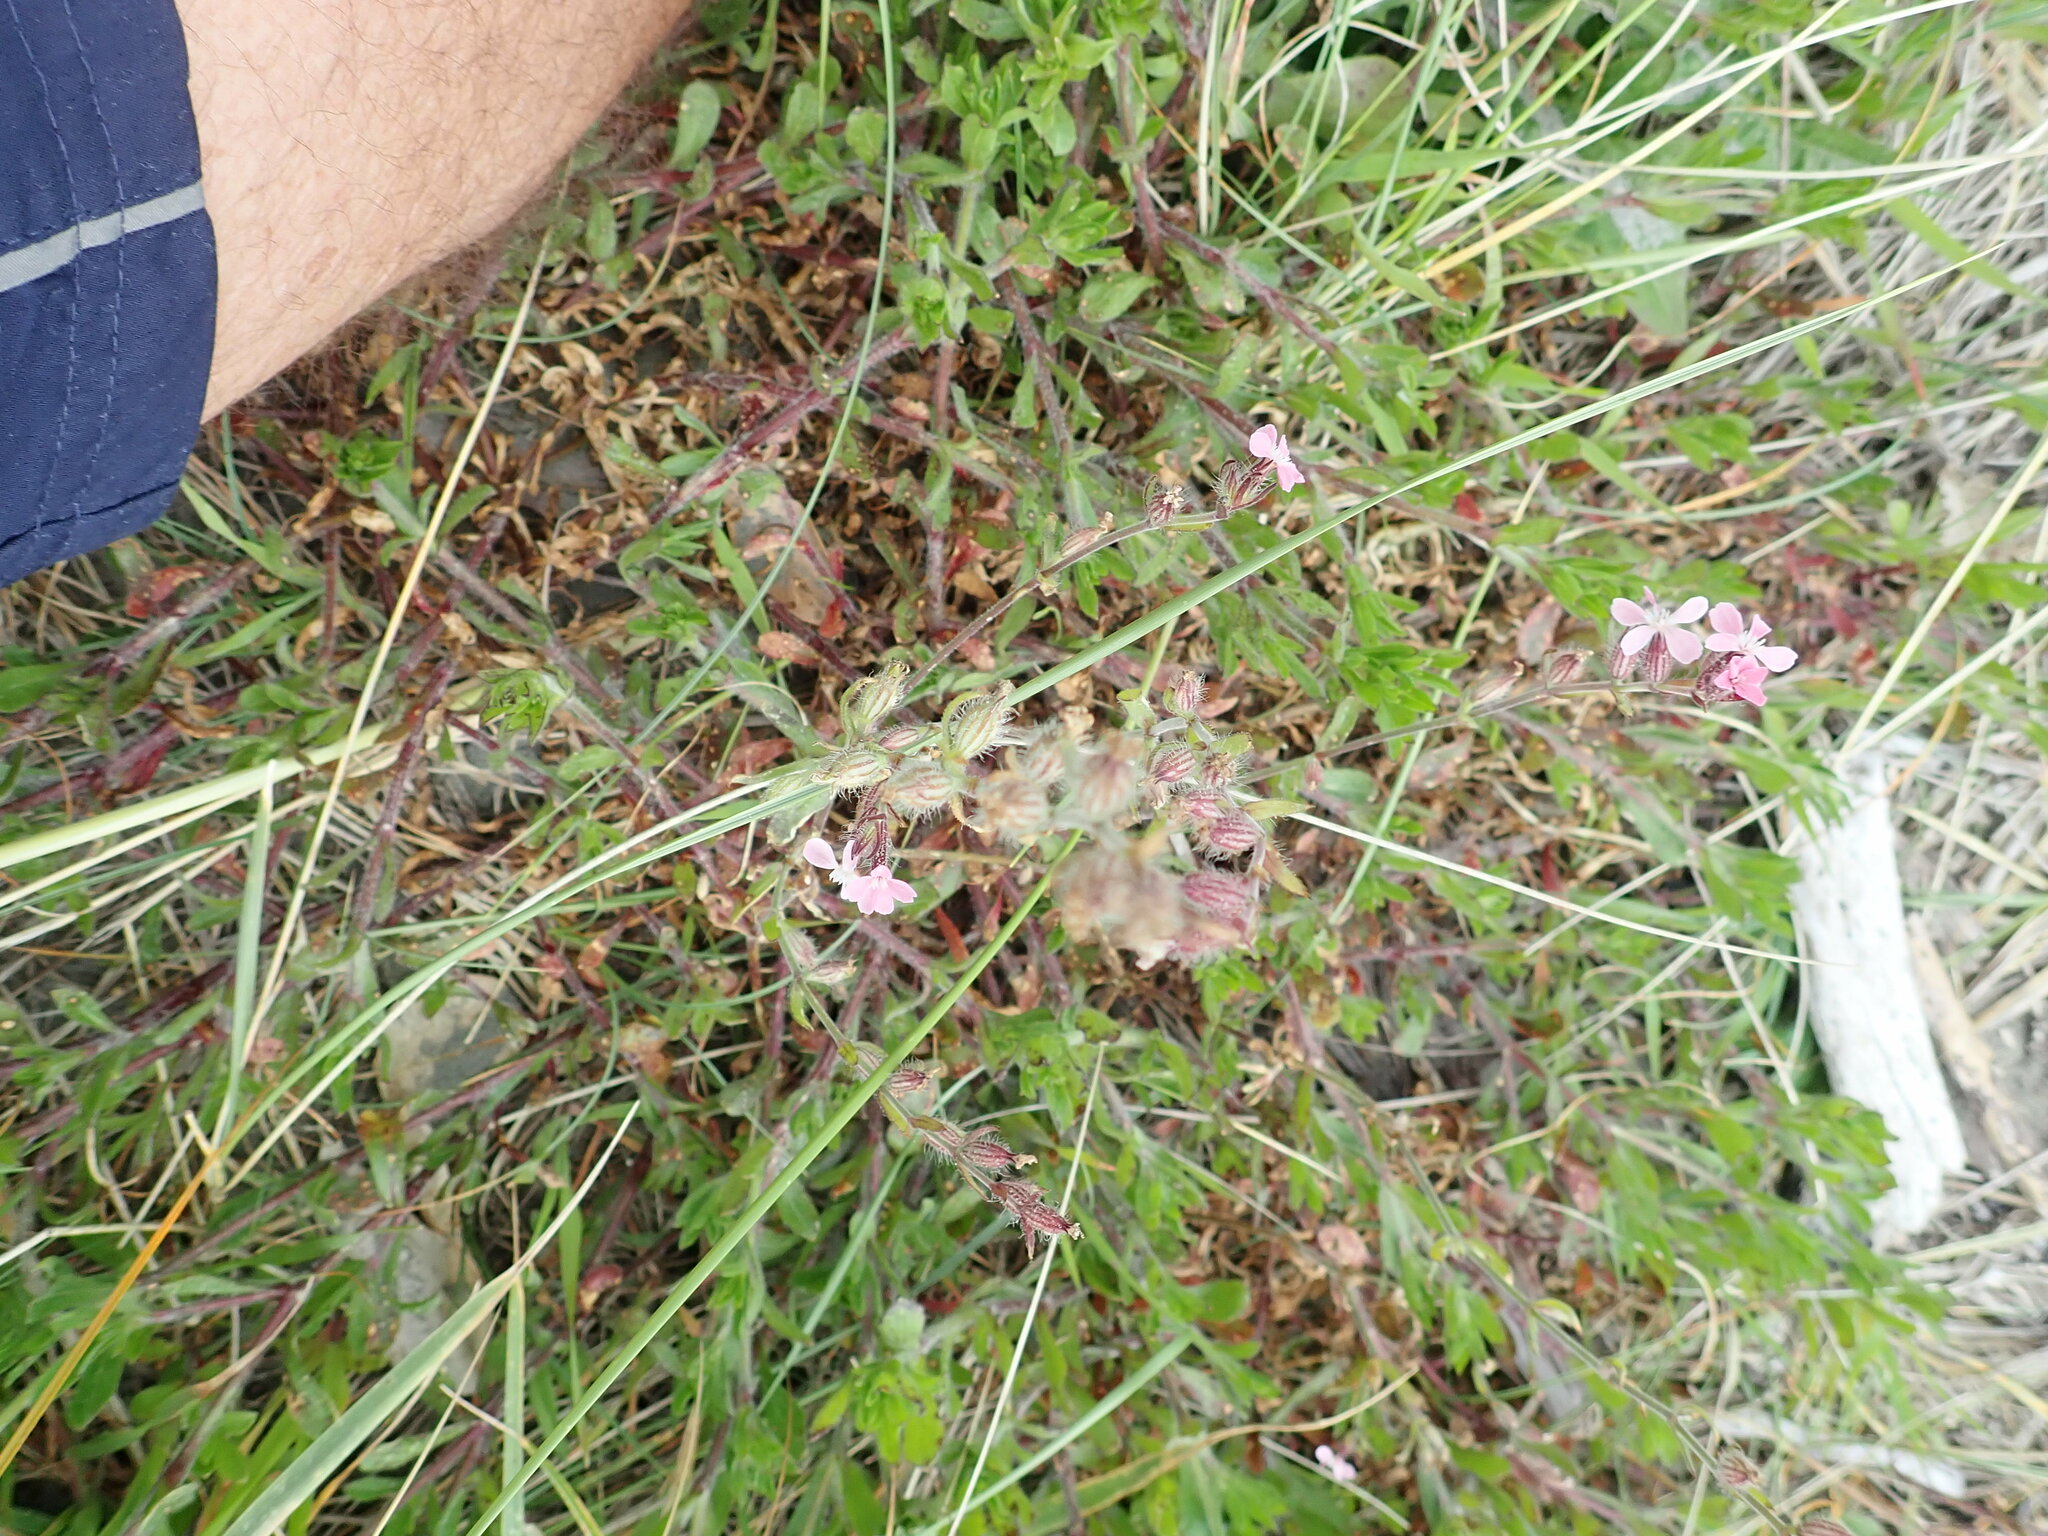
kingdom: Plantae
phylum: Tracheophyta
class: Magnoliopsida
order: Caryophyllales
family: Caryophyllaceae
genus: Silene
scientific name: Silene gallica
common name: Small-flowered catchfly
